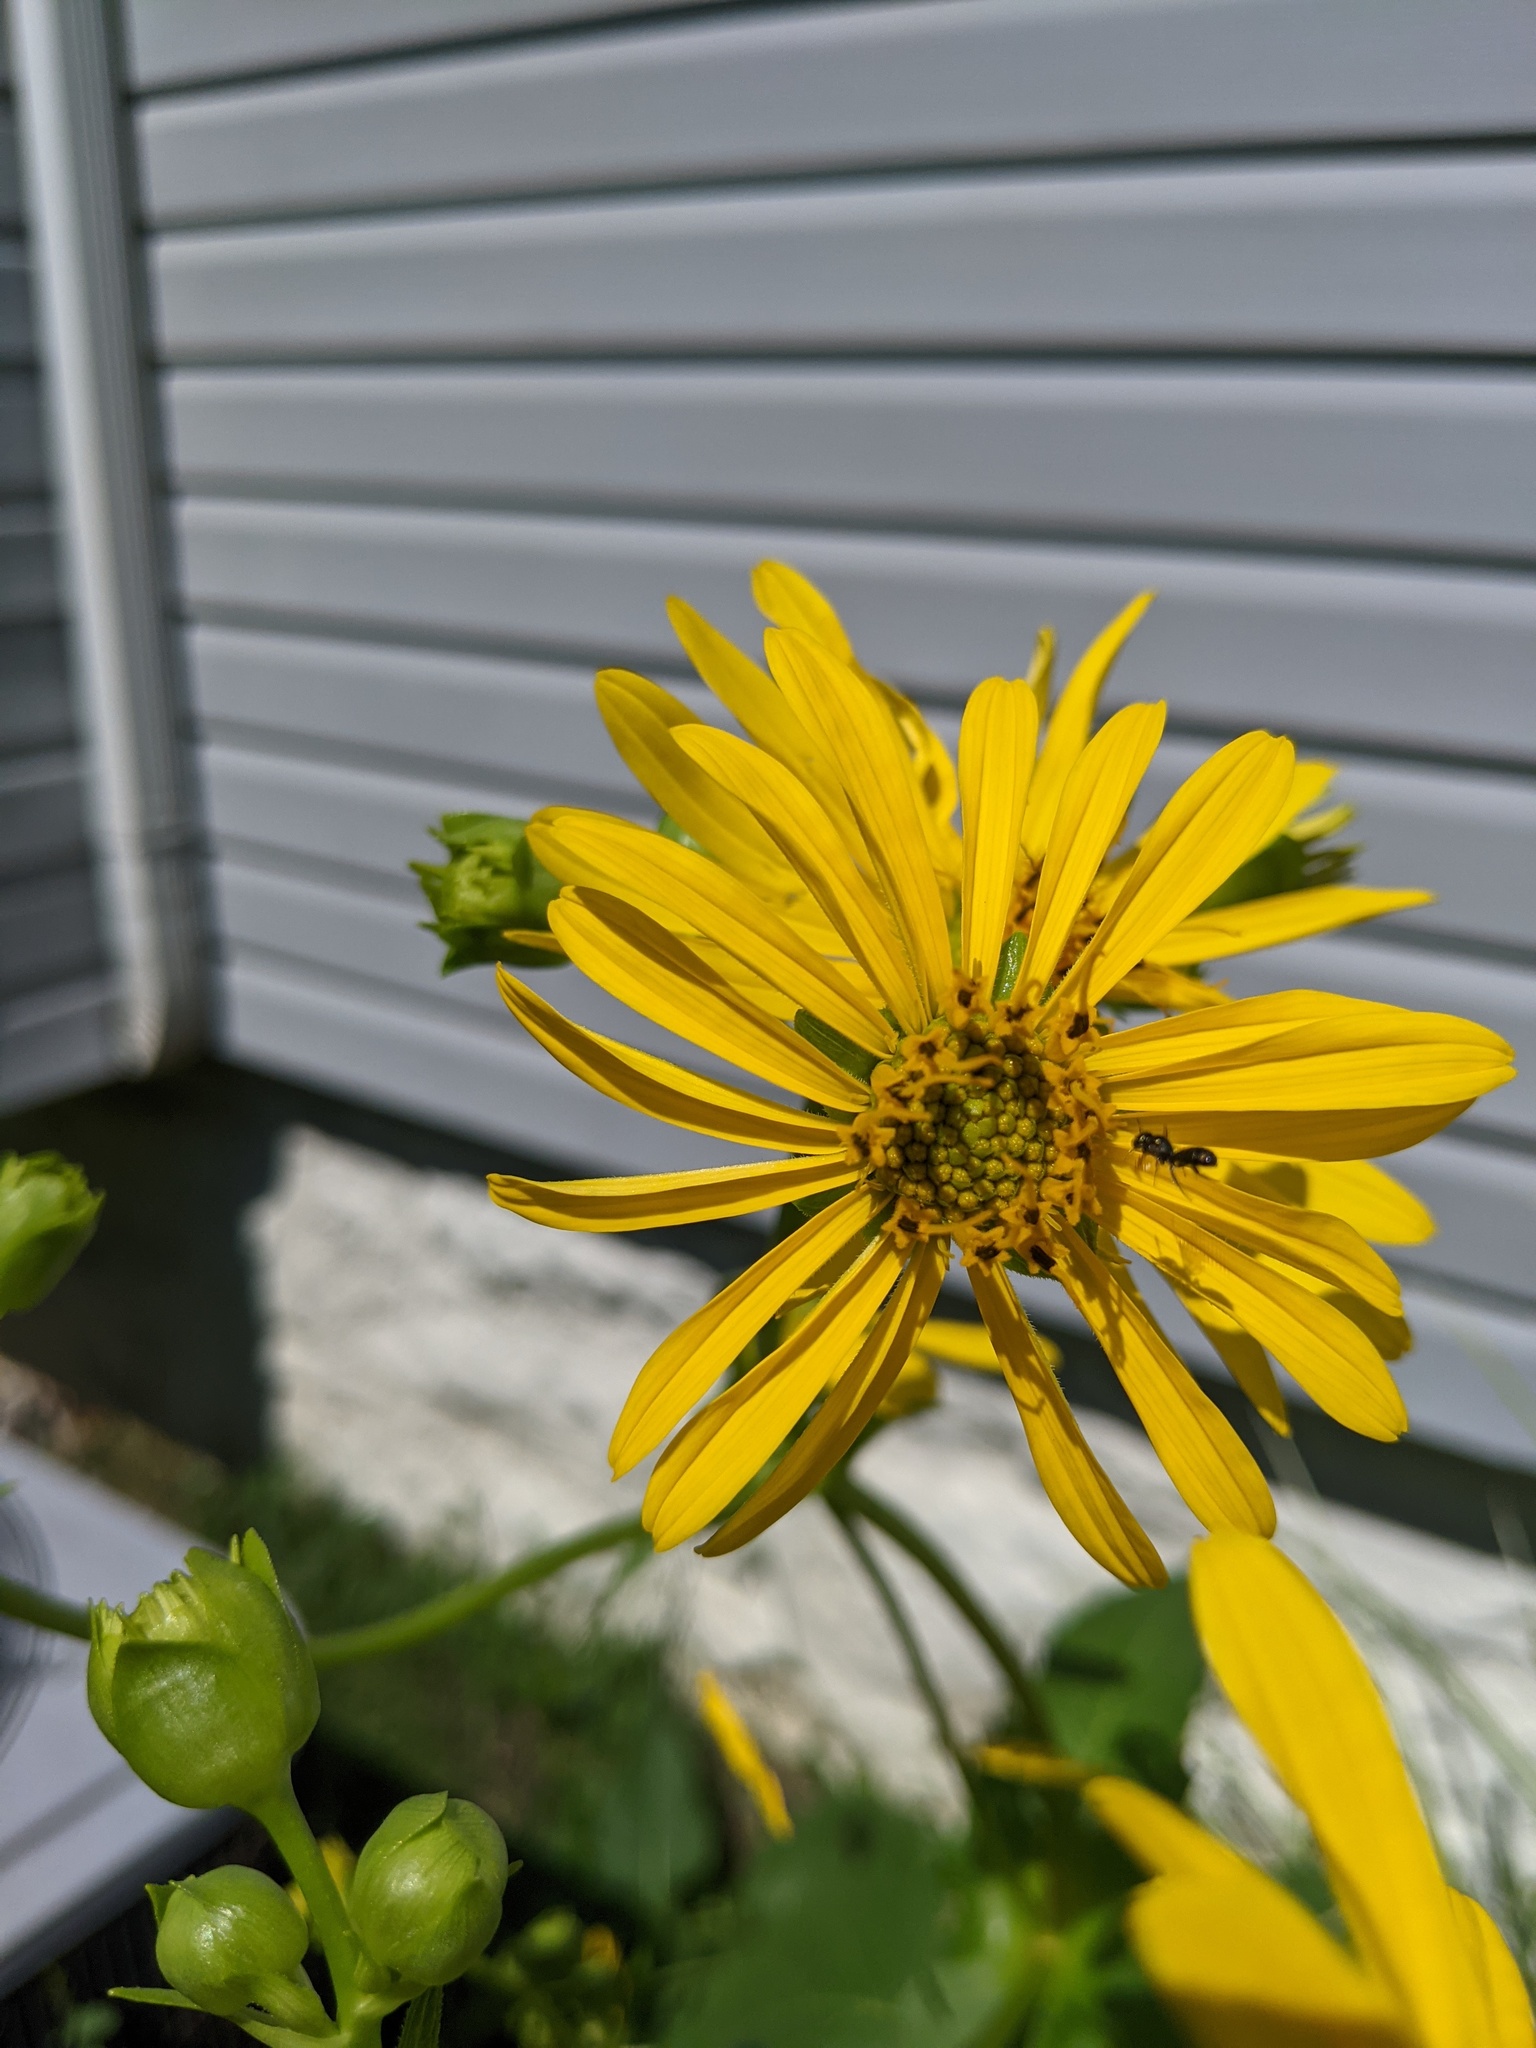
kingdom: Animalia
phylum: Arthropoda
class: Insecta
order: Hymenoptera
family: Apidae
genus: Zadontomerus
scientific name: Zadontomerus
